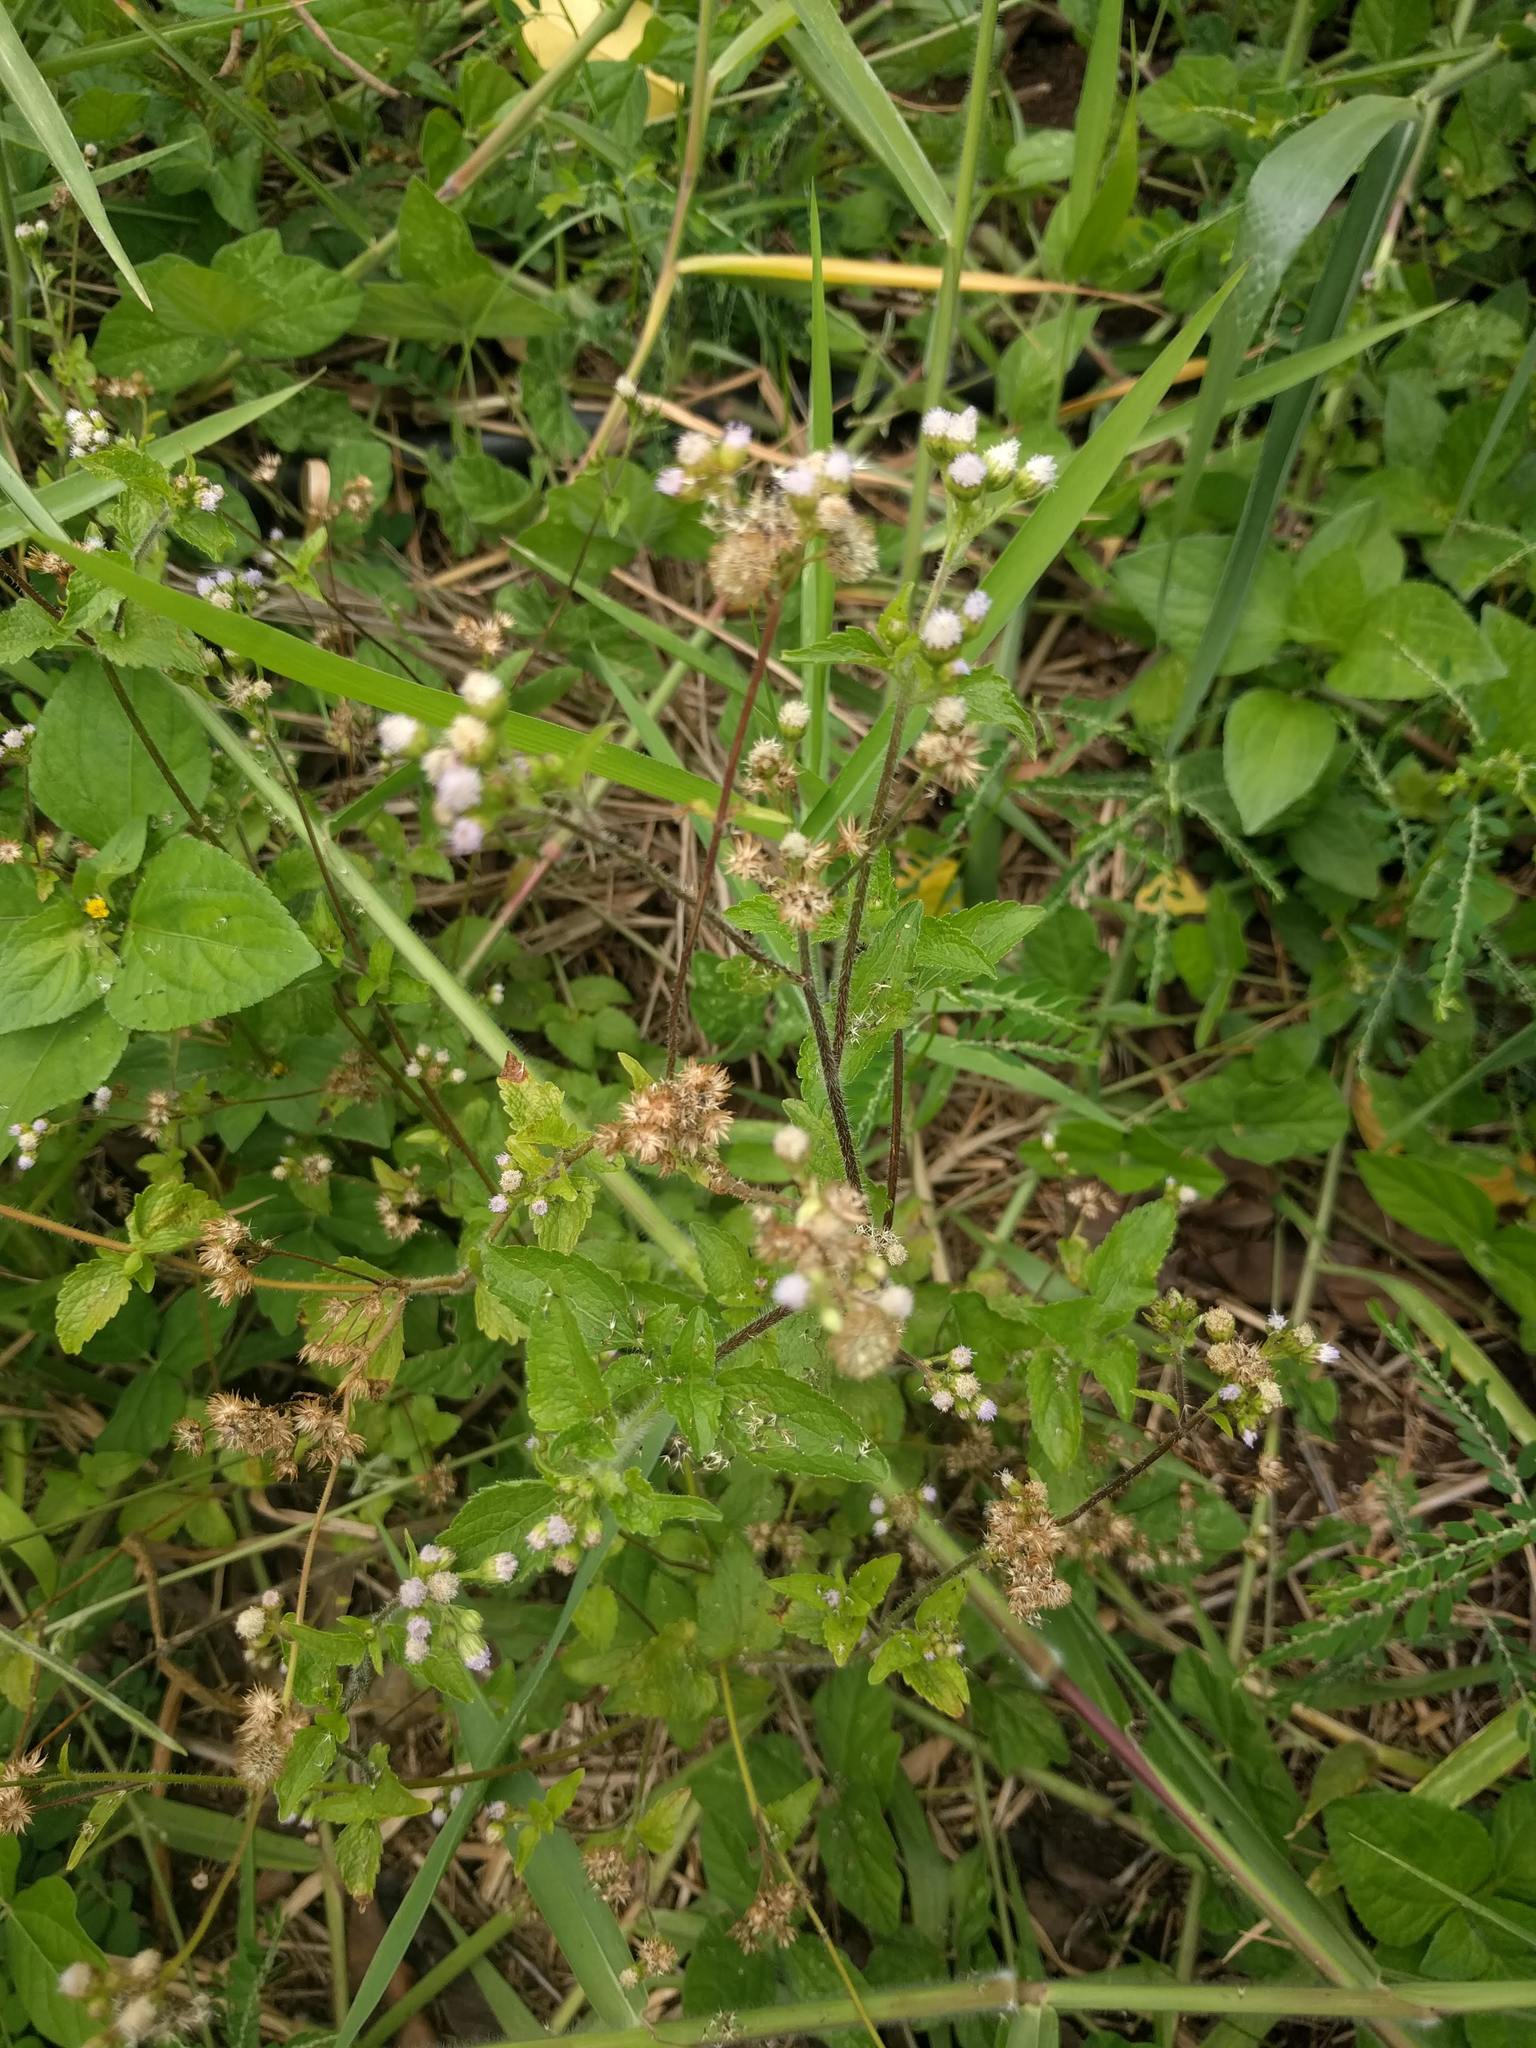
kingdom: Plantae
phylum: Tracheophyta
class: Magnoliopsida
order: Asterales
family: Asteraceae
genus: Ageratum
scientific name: Ageratum conyzoides
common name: Tropical whiteweed
